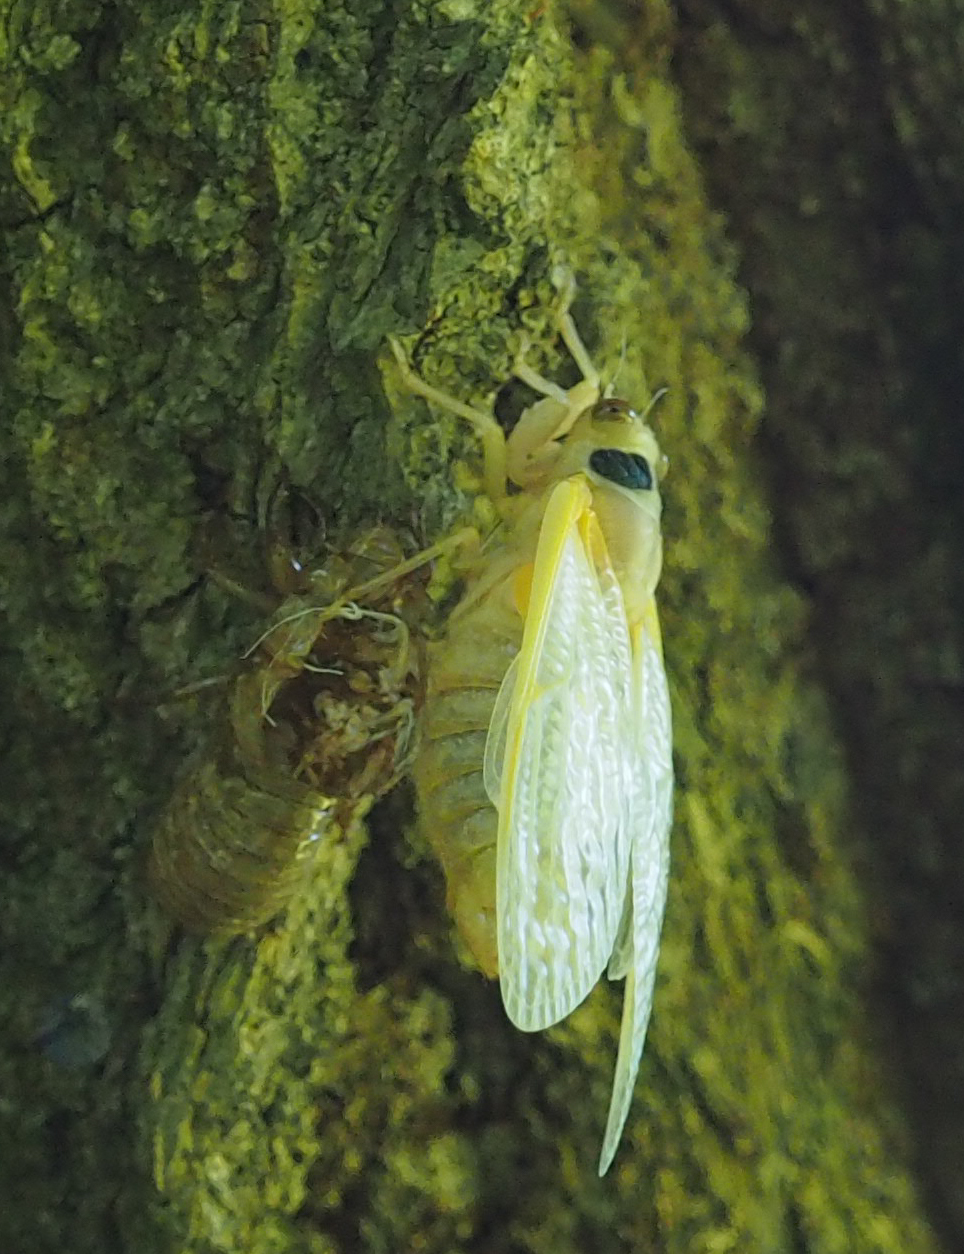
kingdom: Animalia
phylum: Arthropoda
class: Insecta
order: Hemiptera
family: Cicadidae
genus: Magicicada
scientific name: Magicicada
